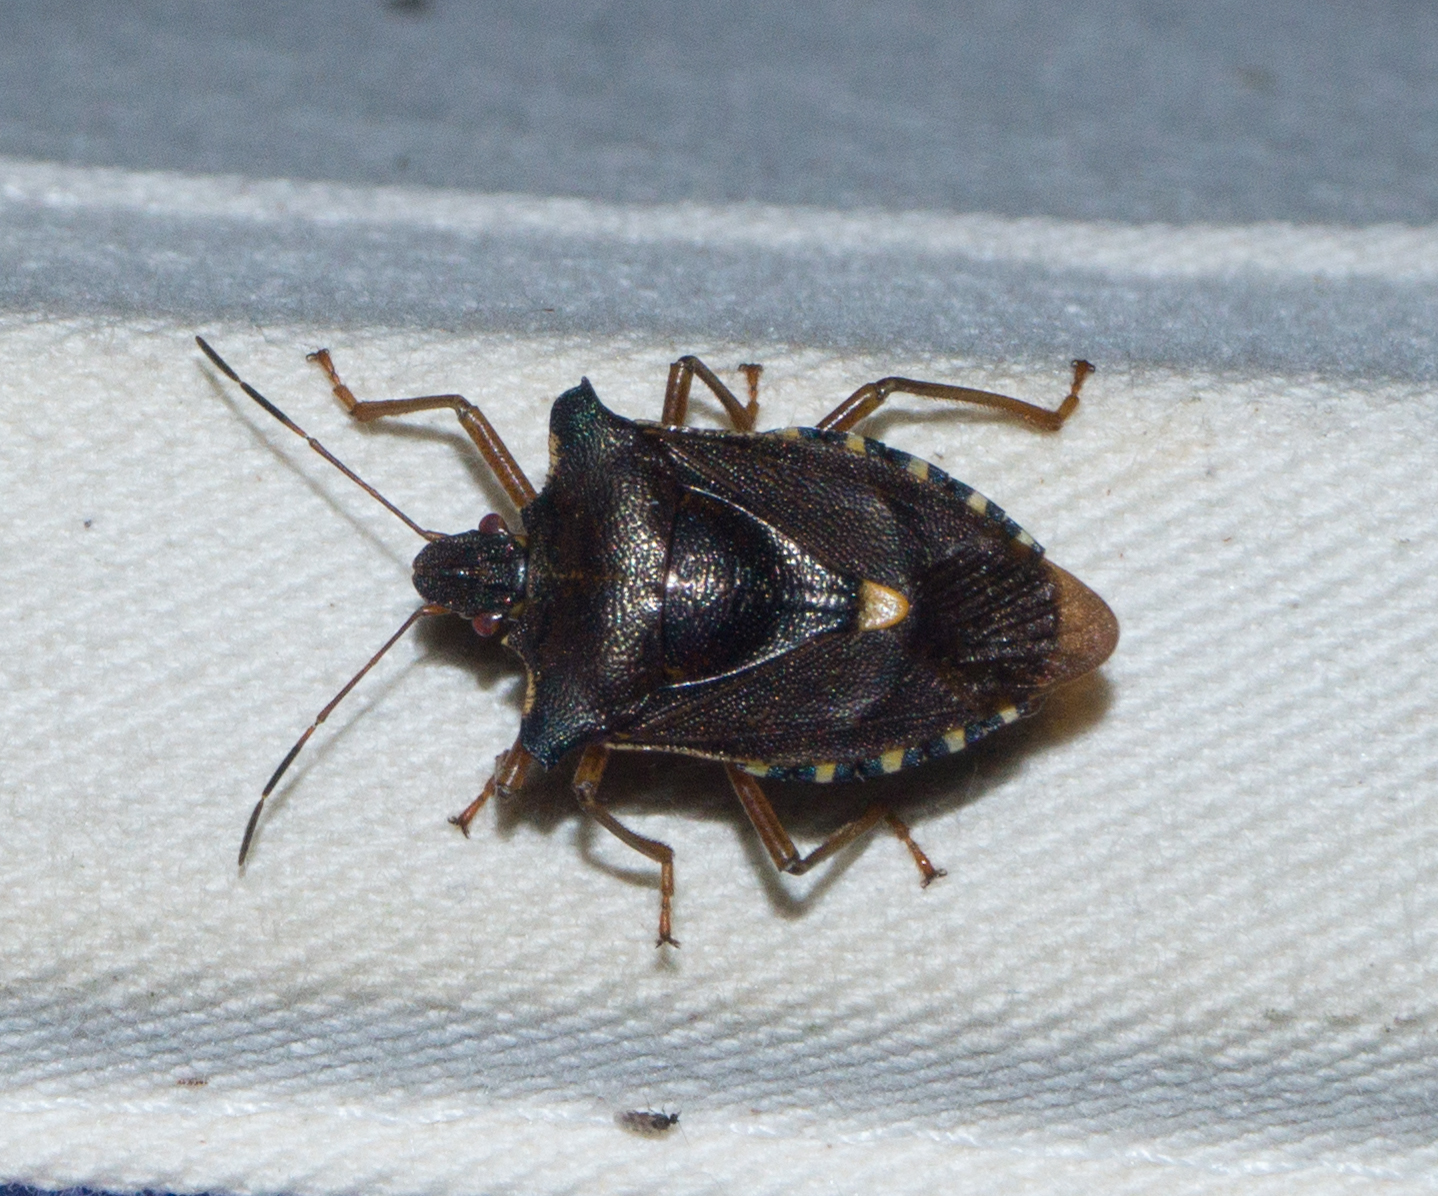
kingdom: Animalia
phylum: Arthropoda
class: Insecta
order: Hemiptera
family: Pentatomidae
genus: Pentatoma
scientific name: Pentatoma rufipes
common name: Forest bug
